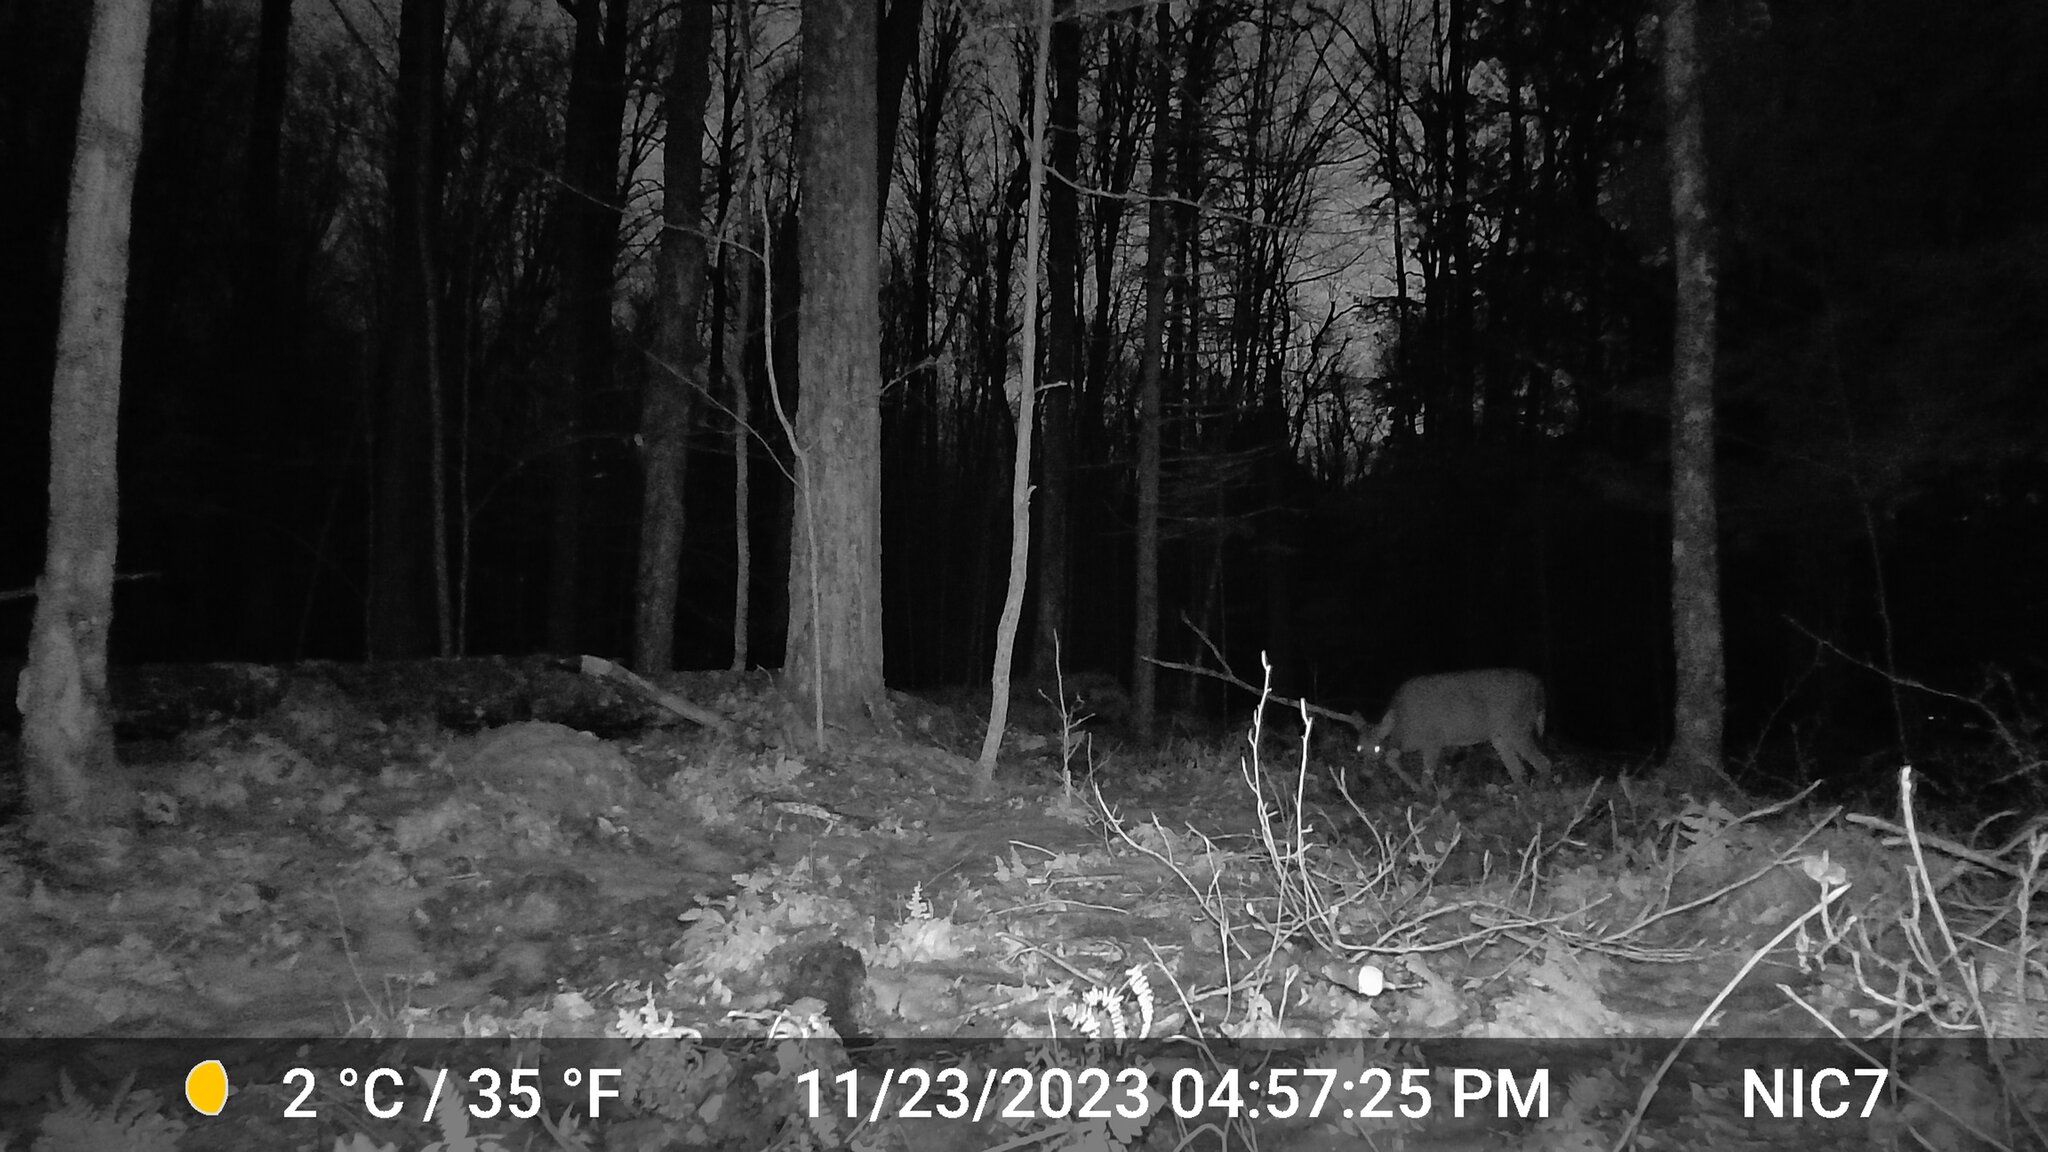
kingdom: Animalia
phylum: Chordata
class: Mammalia
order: Artiodactyla
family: Cervidae
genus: Odocoileus
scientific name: Odocoileus virginianus
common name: White-tailed deer
